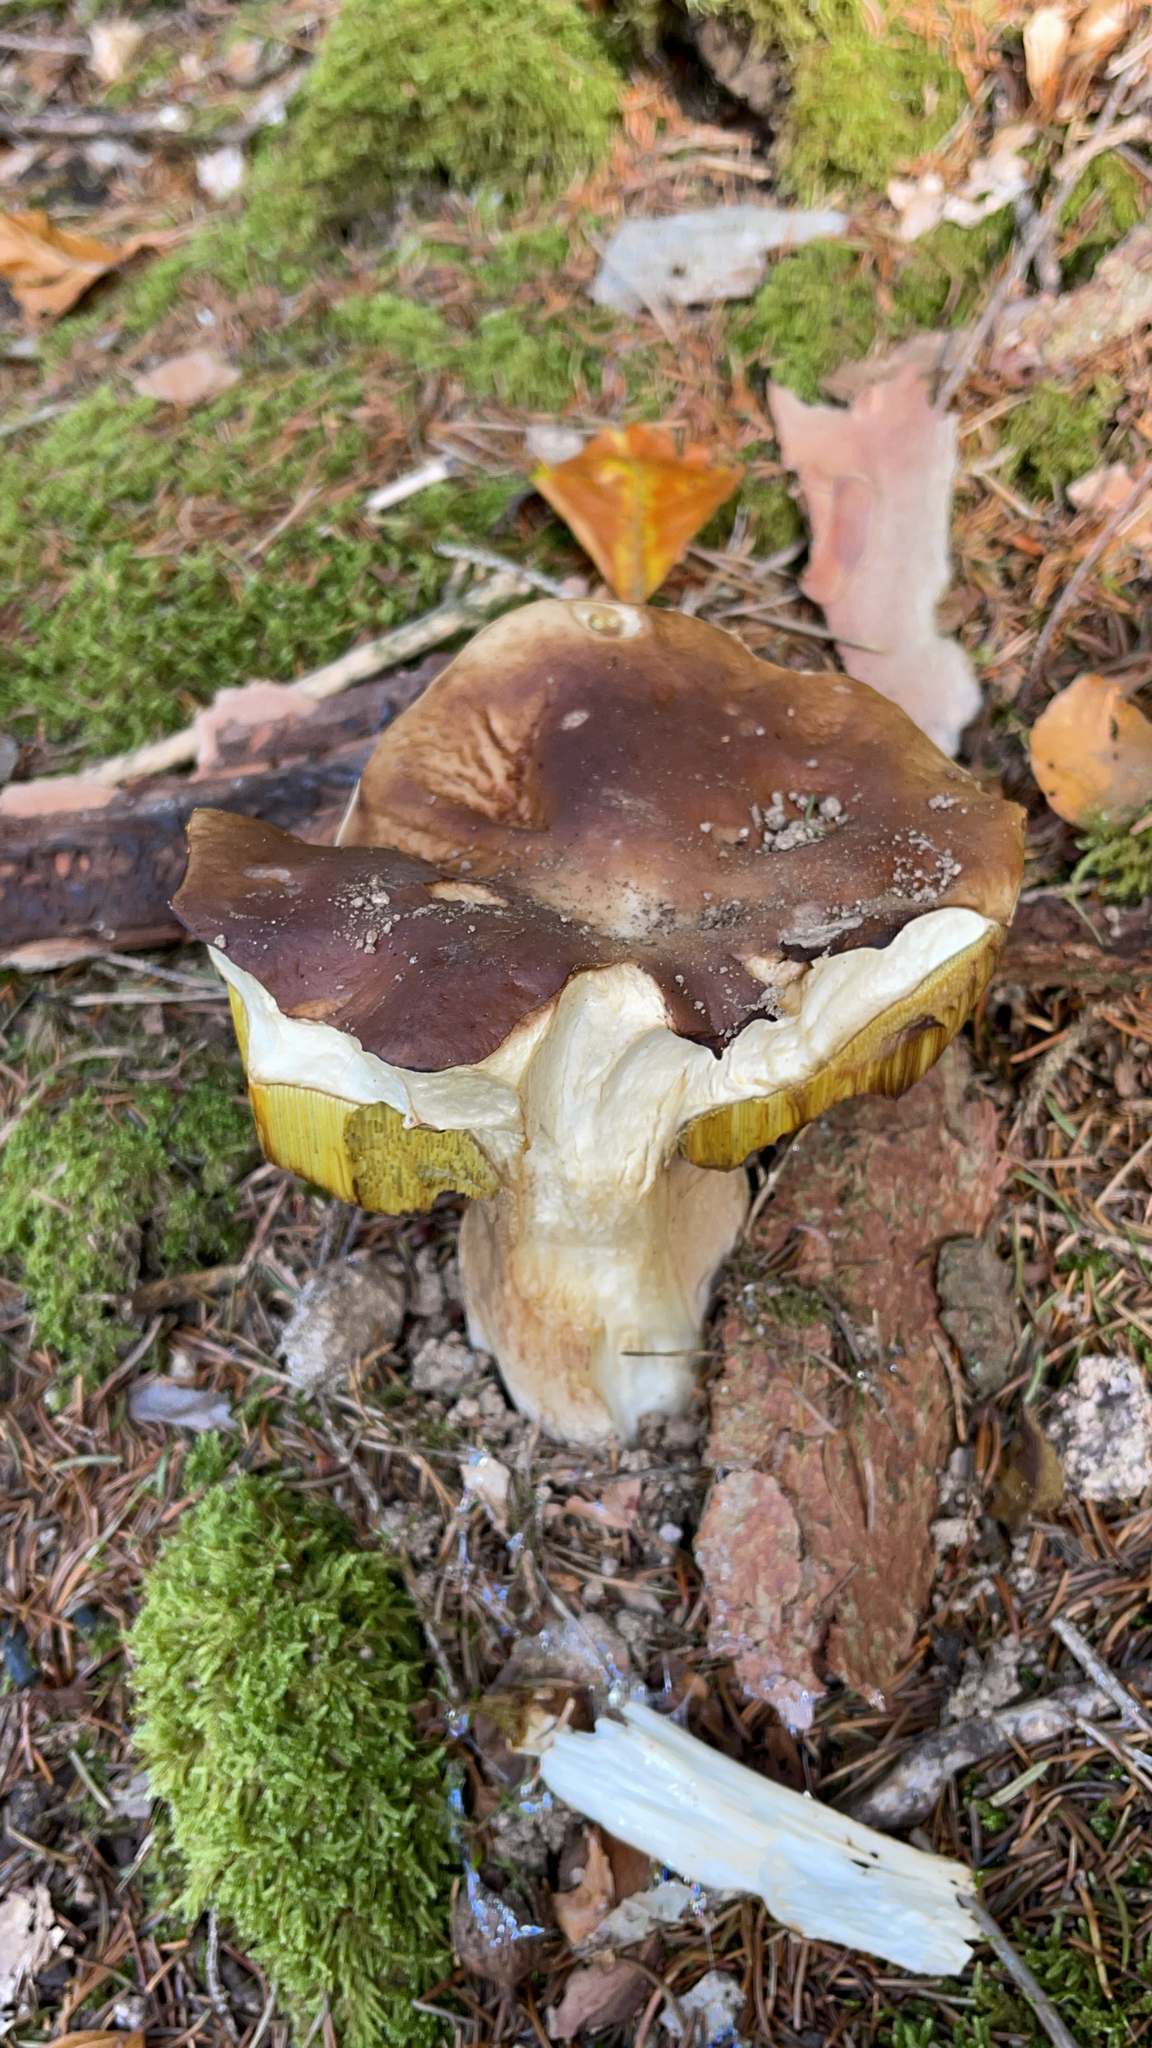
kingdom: Fungi
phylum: Basidiomycota
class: Agaricomycetes
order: Boletales
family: Boletaceae
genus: Boletus
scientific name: Boletus edulis
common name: Cep
